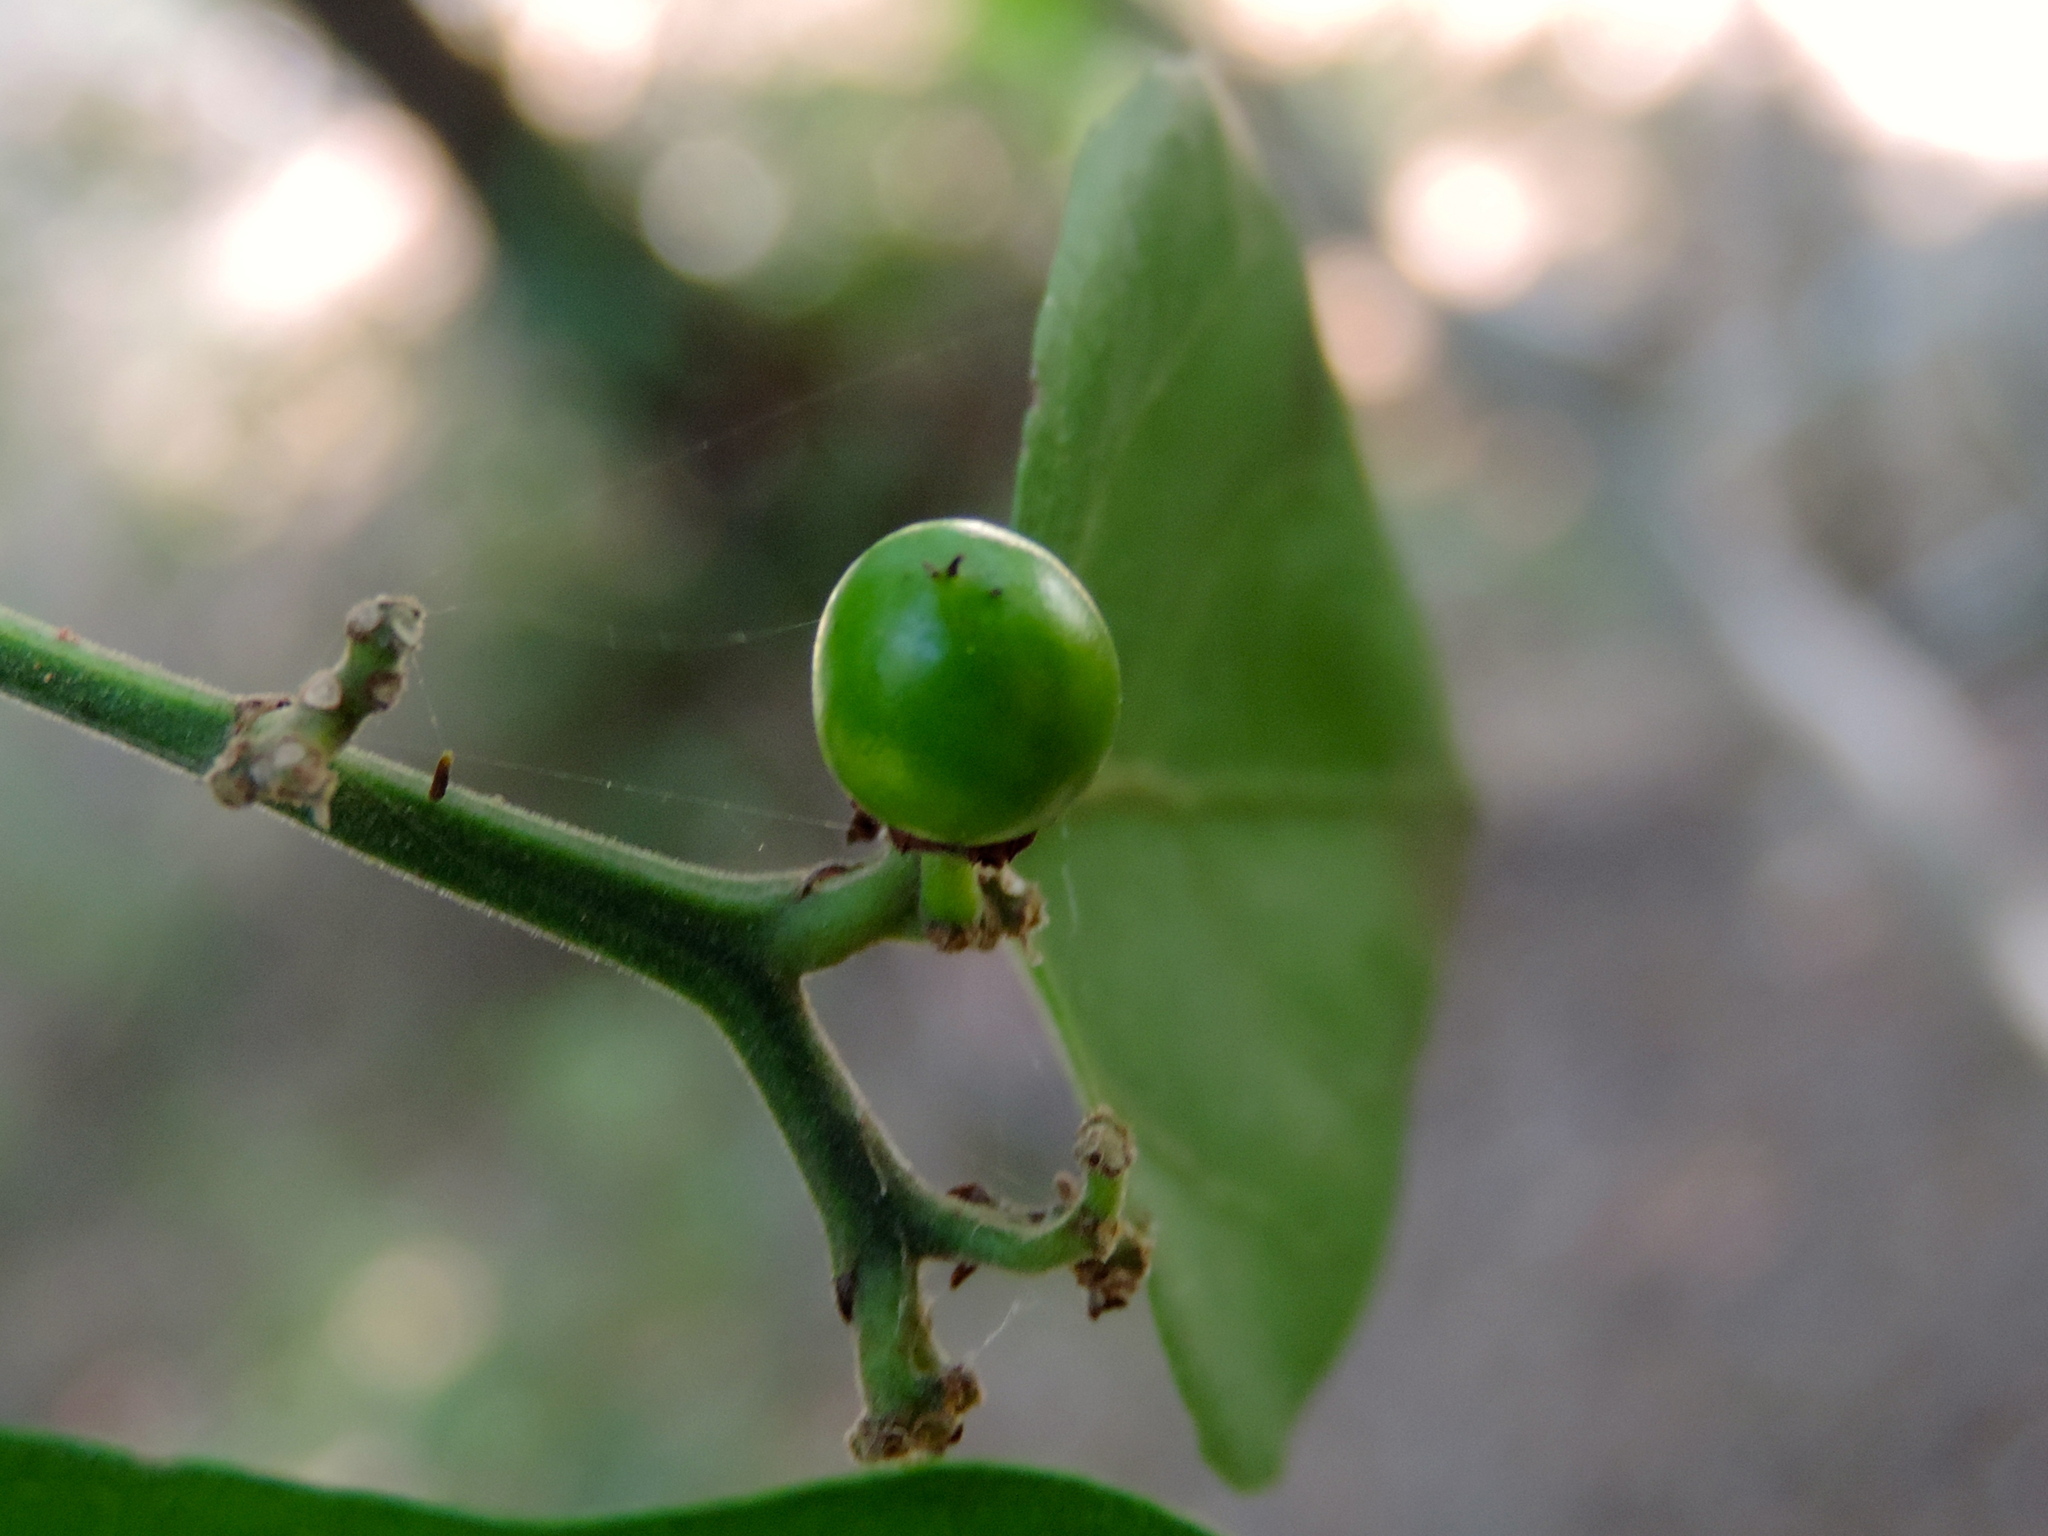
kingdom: Plantae
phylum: Tracheophyta
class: Magnoliopsida
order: Rosales
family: Rhamnaceae
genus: Ziziphus
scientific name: Ziziphus
